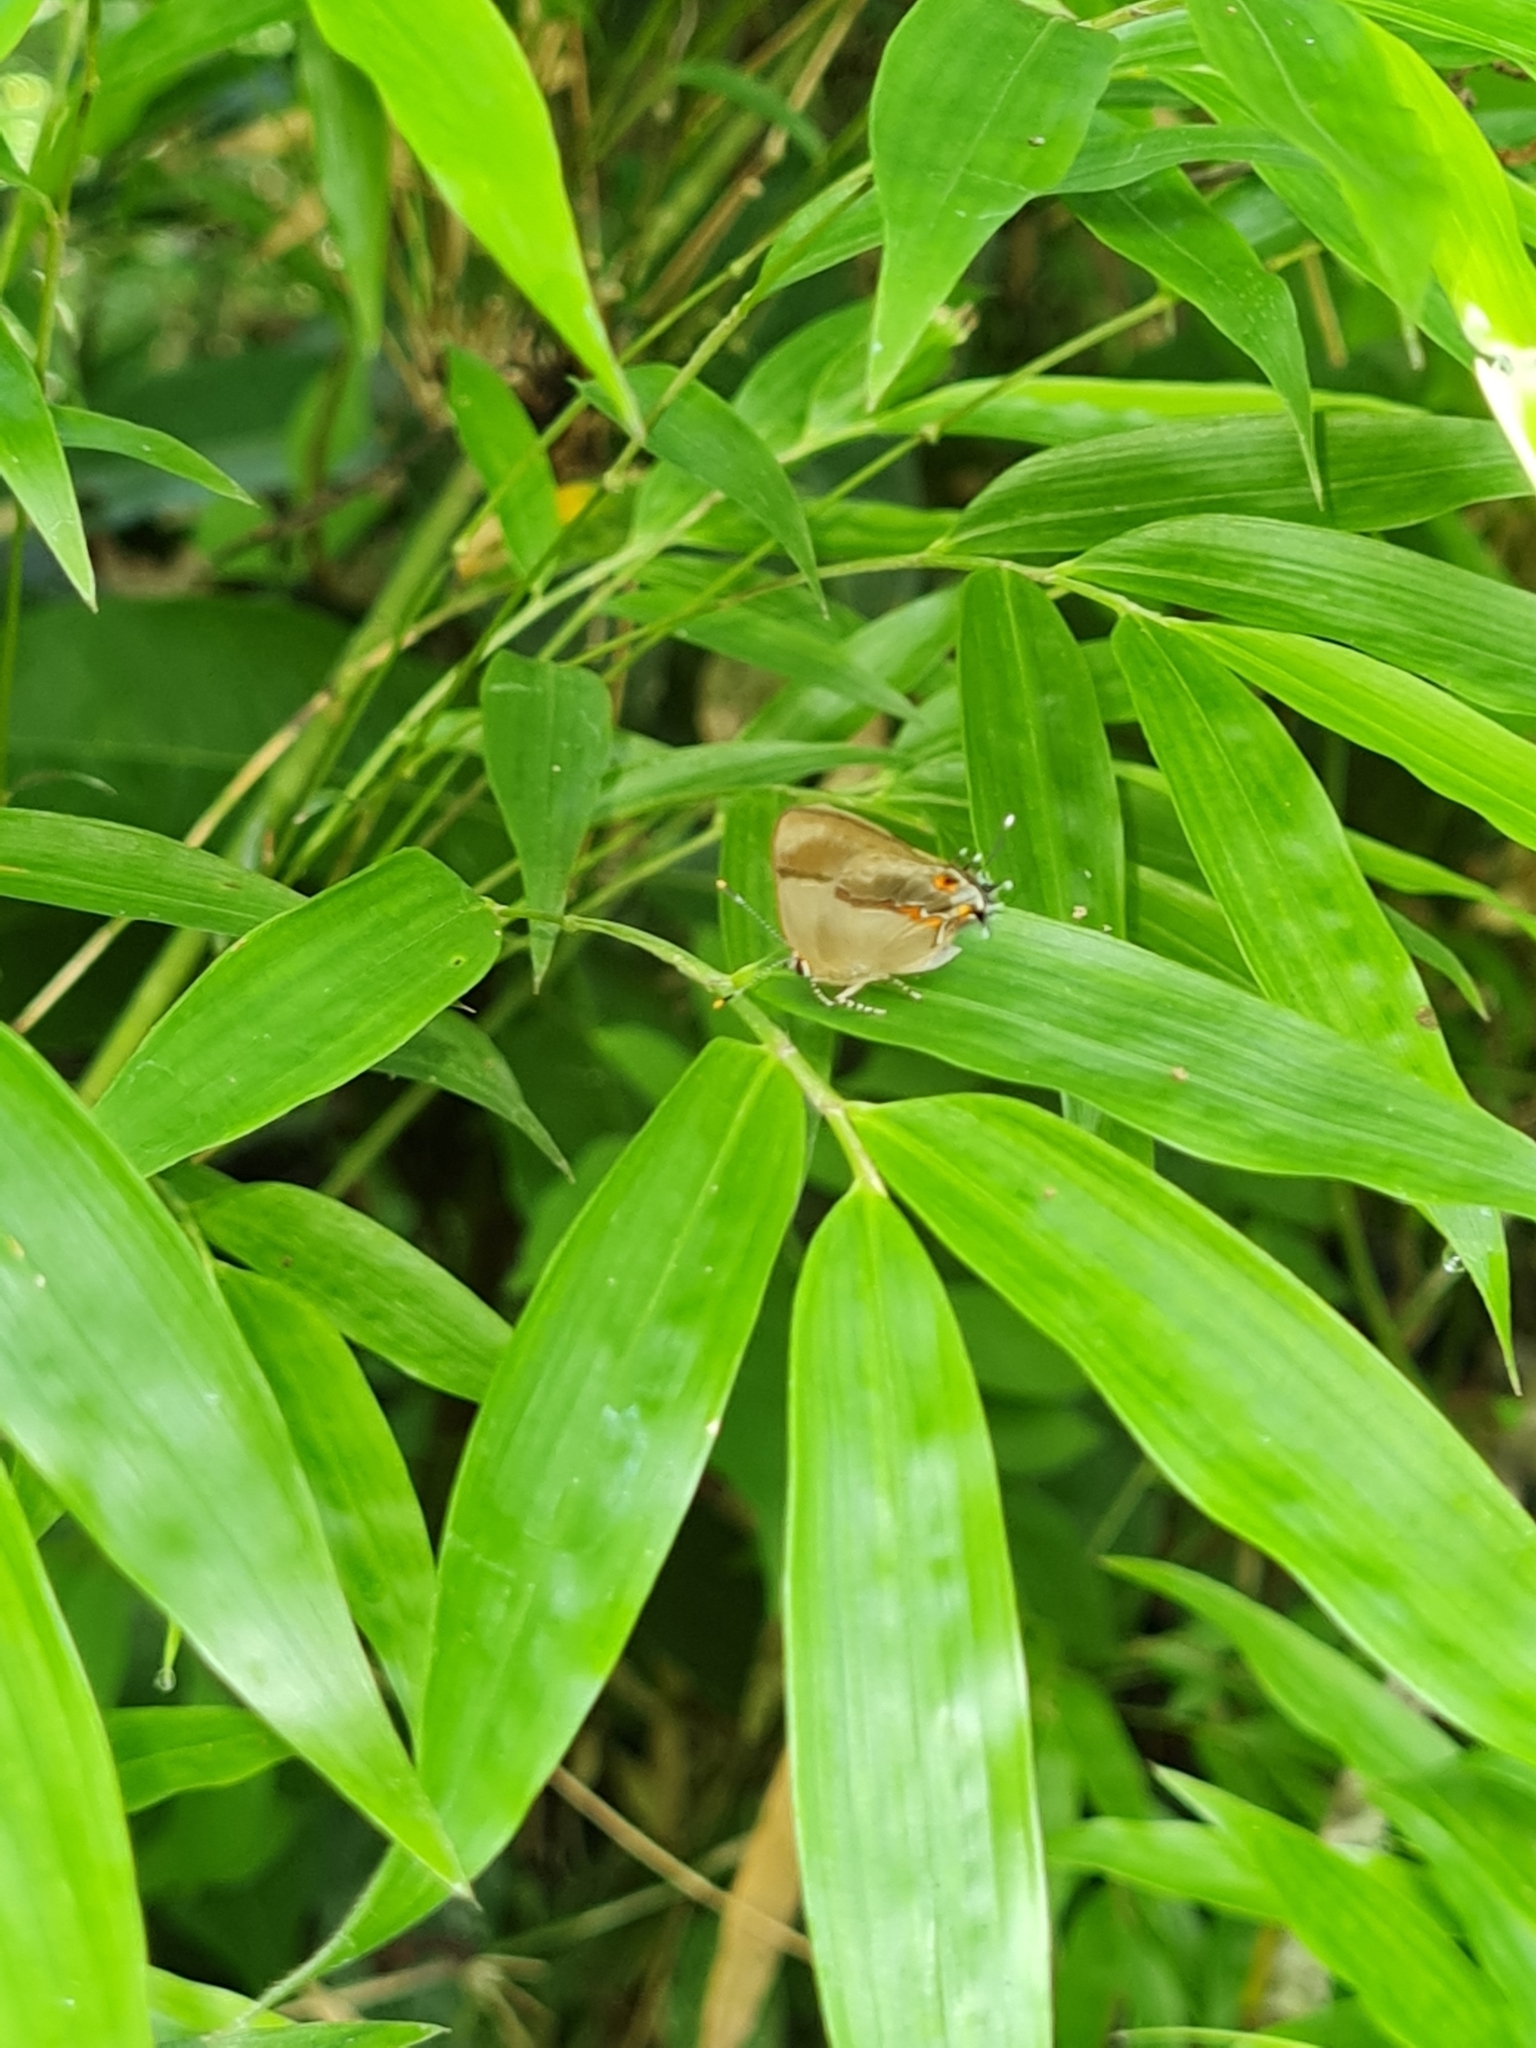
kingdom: Animalia
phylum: Arthropoda
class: Insecta
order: Lepidoptera
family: Lycaenidae
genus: Lamprospilus
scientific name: Lamprospilus collucia
